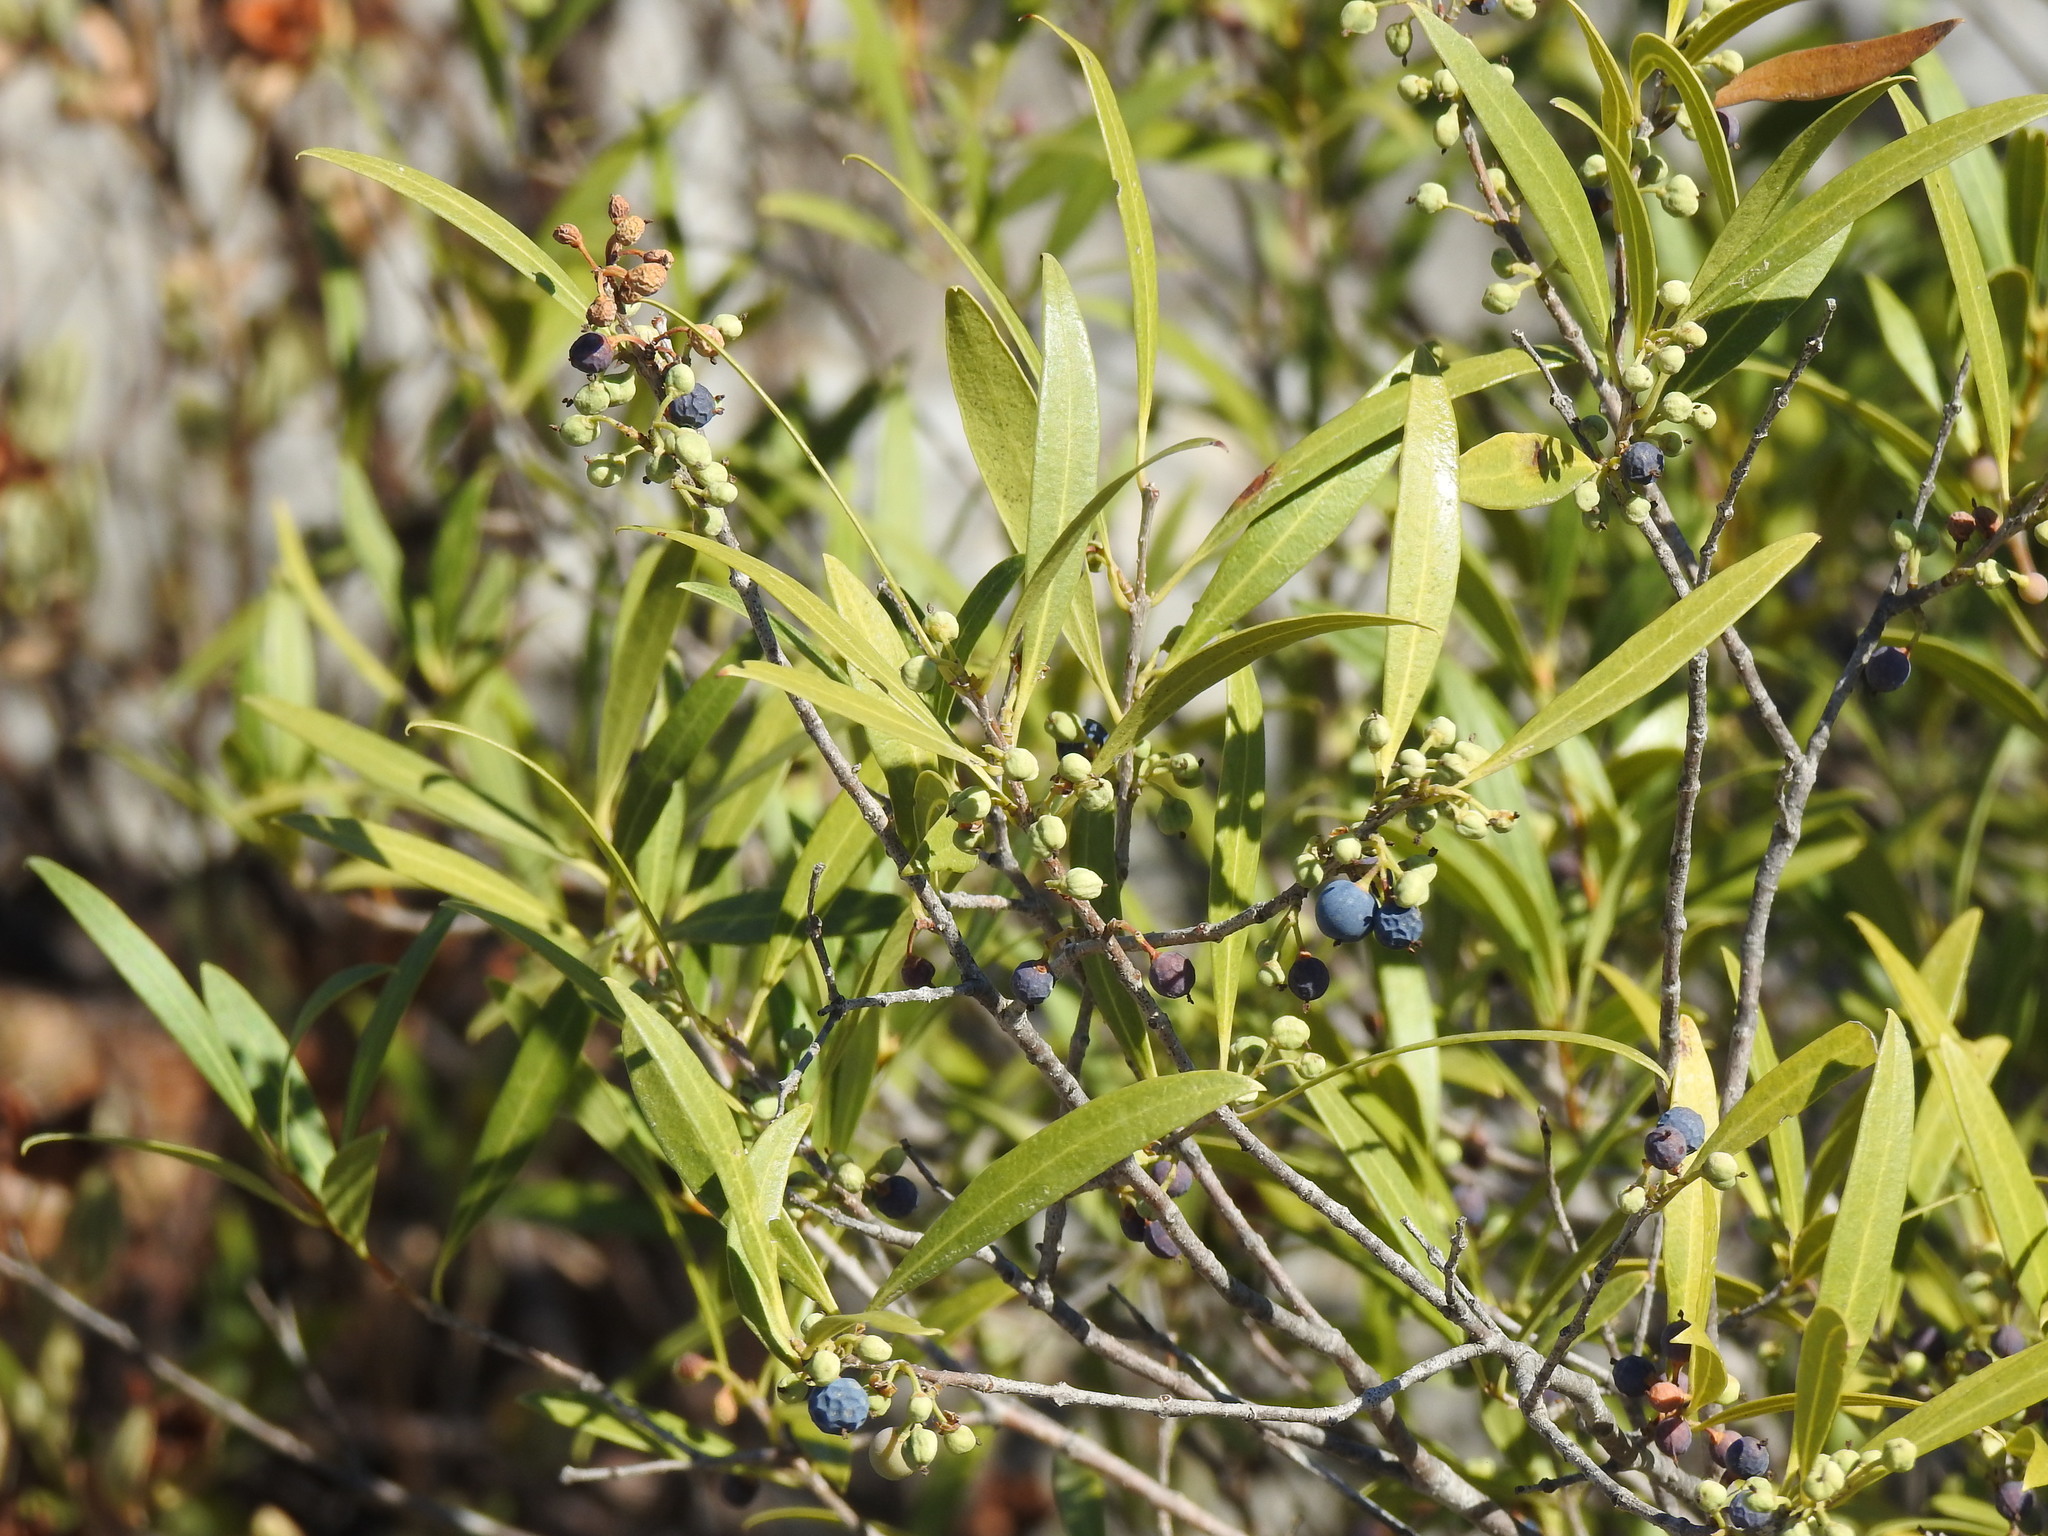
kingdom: Plantae
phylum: Tracheophyta
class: Magnoliopsida
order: Lamiales
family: Oleaceae
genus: Phillyrea
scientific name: Phillyrea angustifolia
